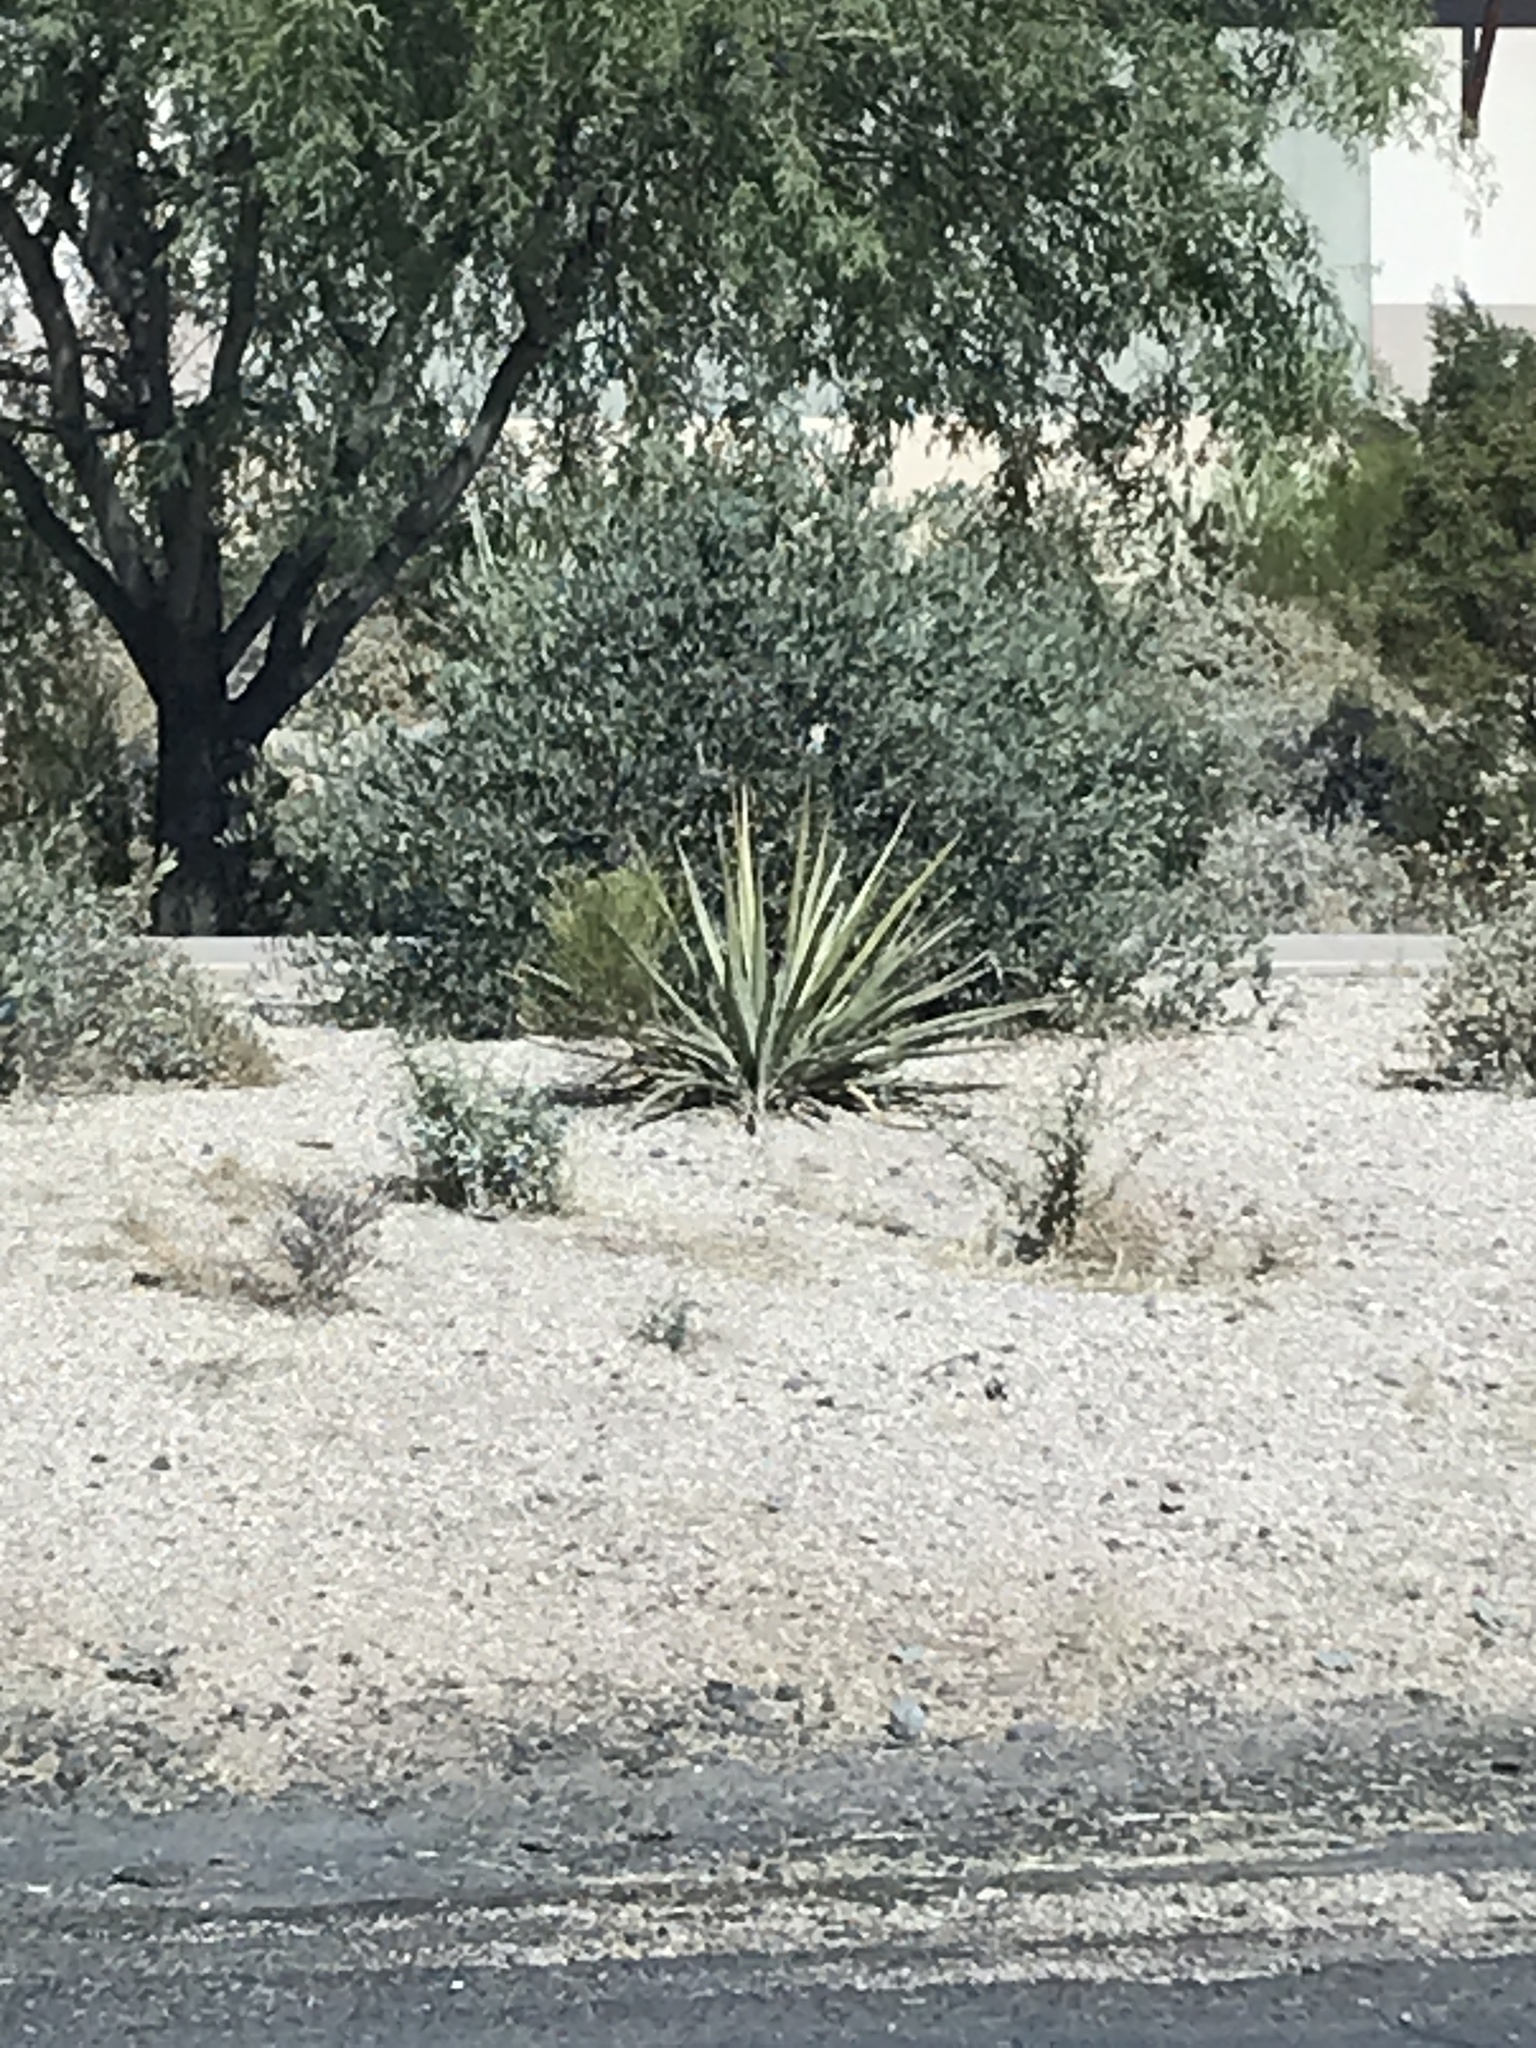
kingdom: Plantae
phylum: Tracheophyta
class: Liliopsida
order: Asparagales
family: Asparagaceae
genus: Yucca
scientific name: Yucca baccata
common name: Banana yucca
